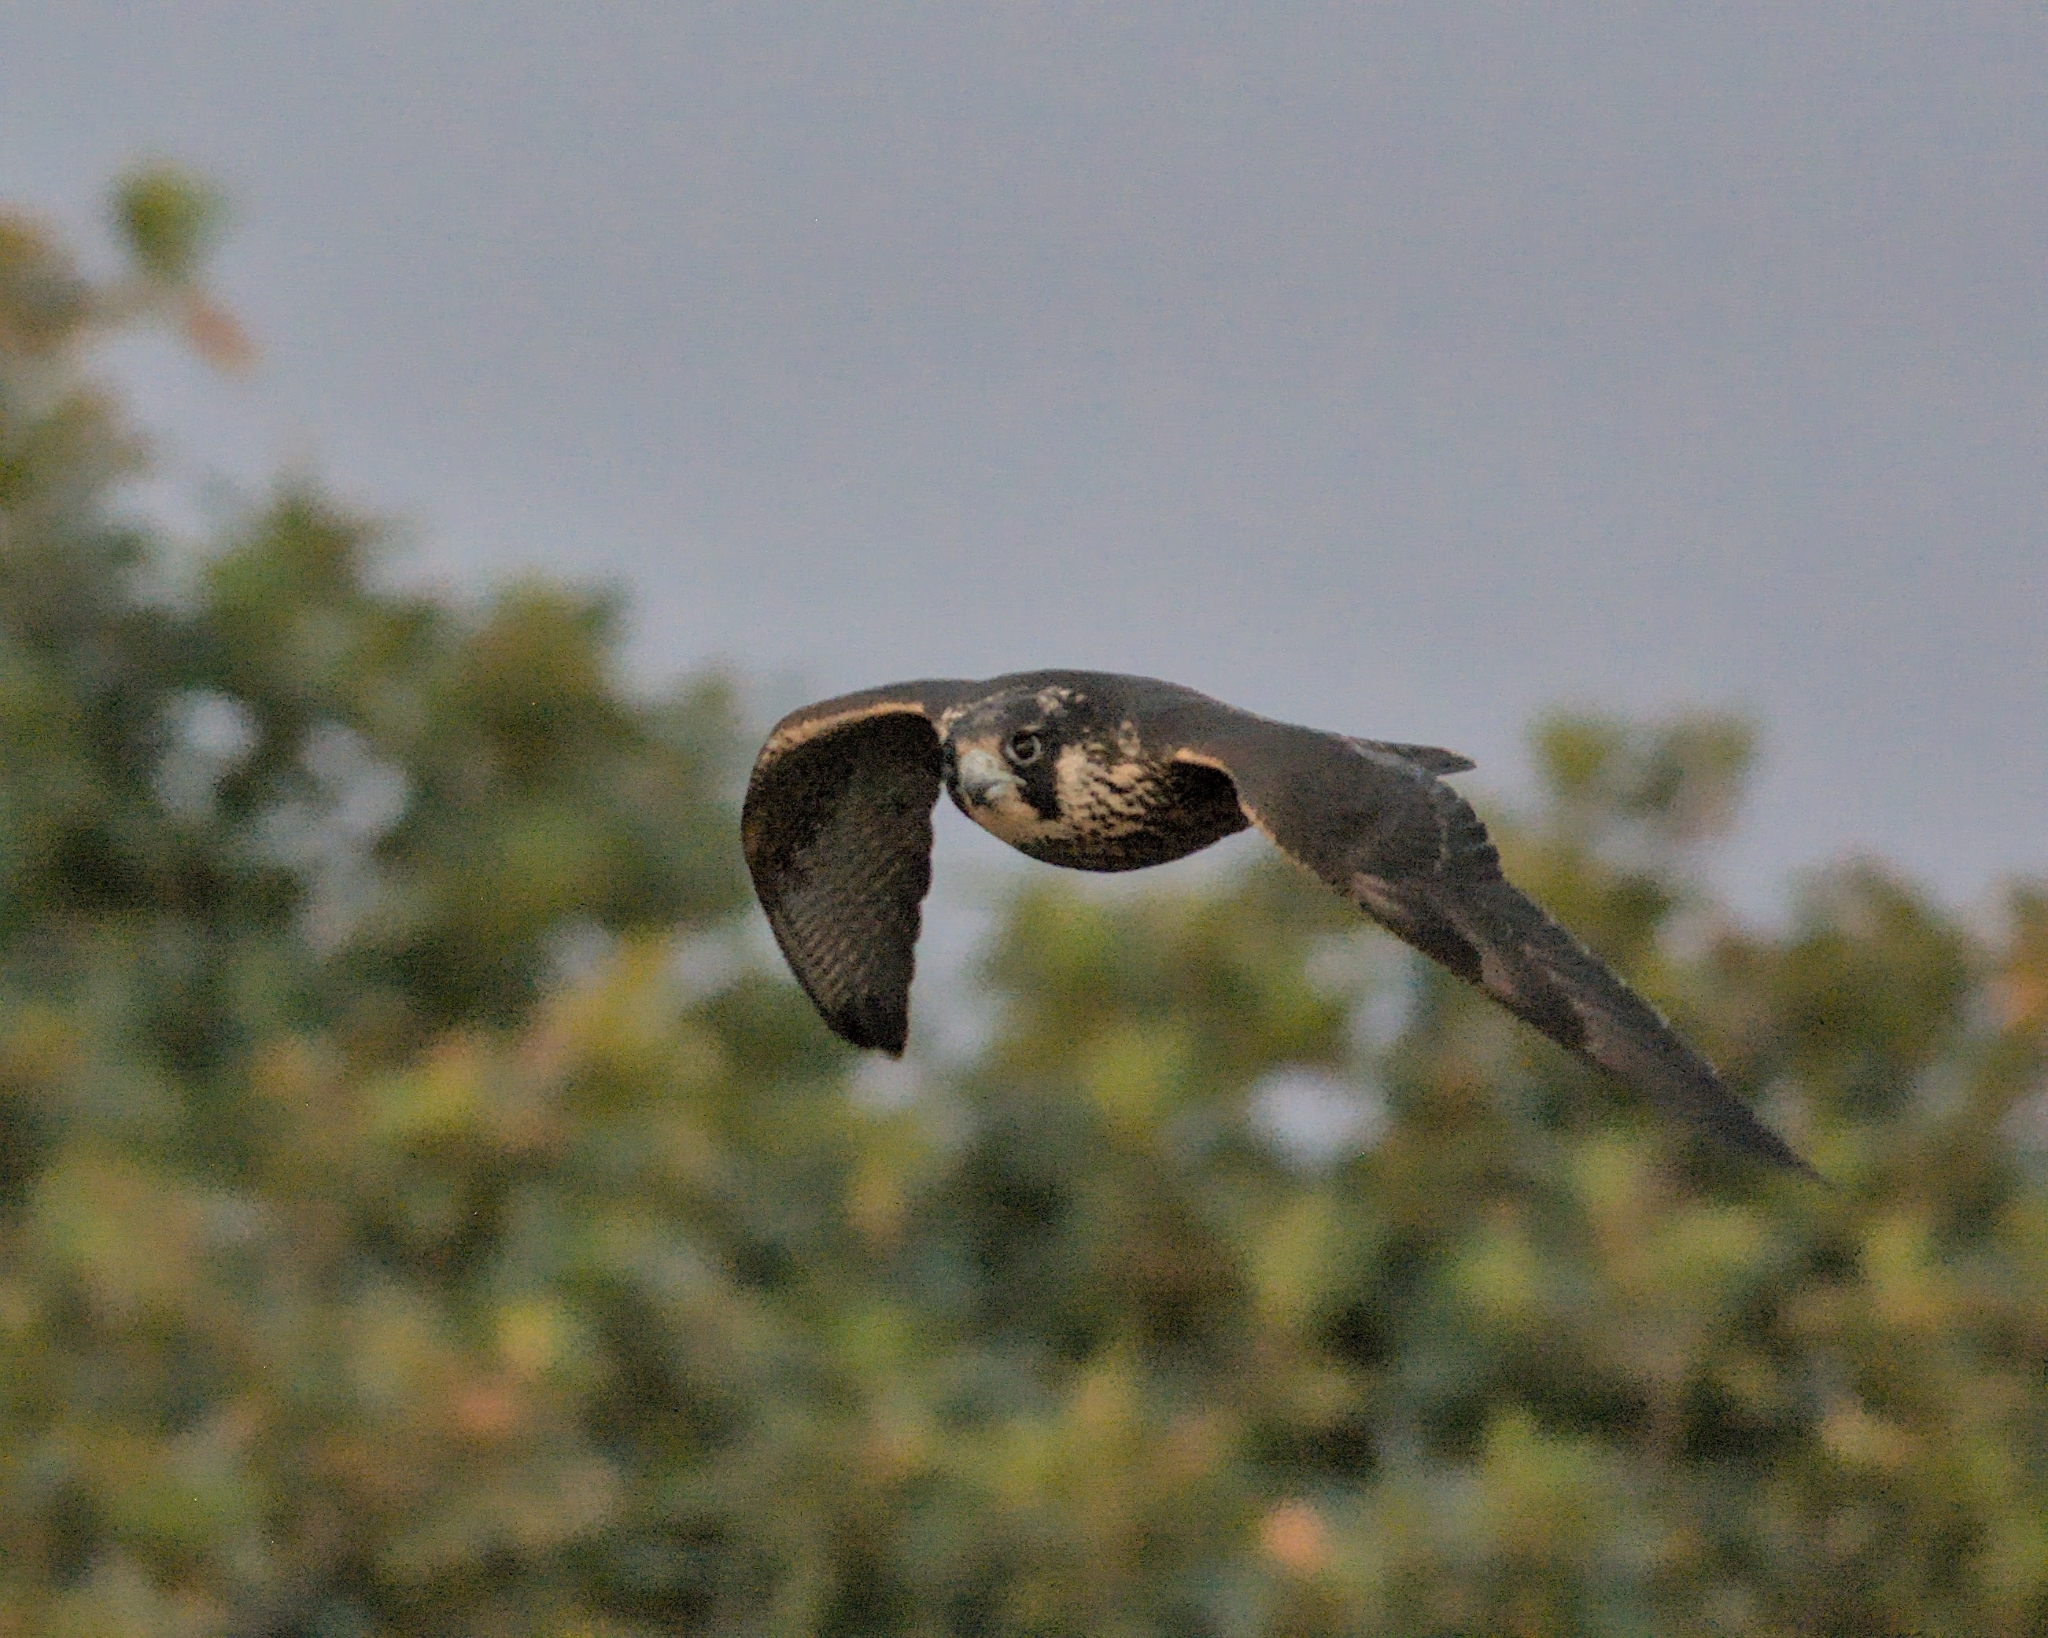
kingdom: Animalia
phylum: Chordata
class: Aves
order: Falconiformes
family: Falconidae
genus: Falco
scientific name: Falco peregrinus
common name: Peregrine falcon
